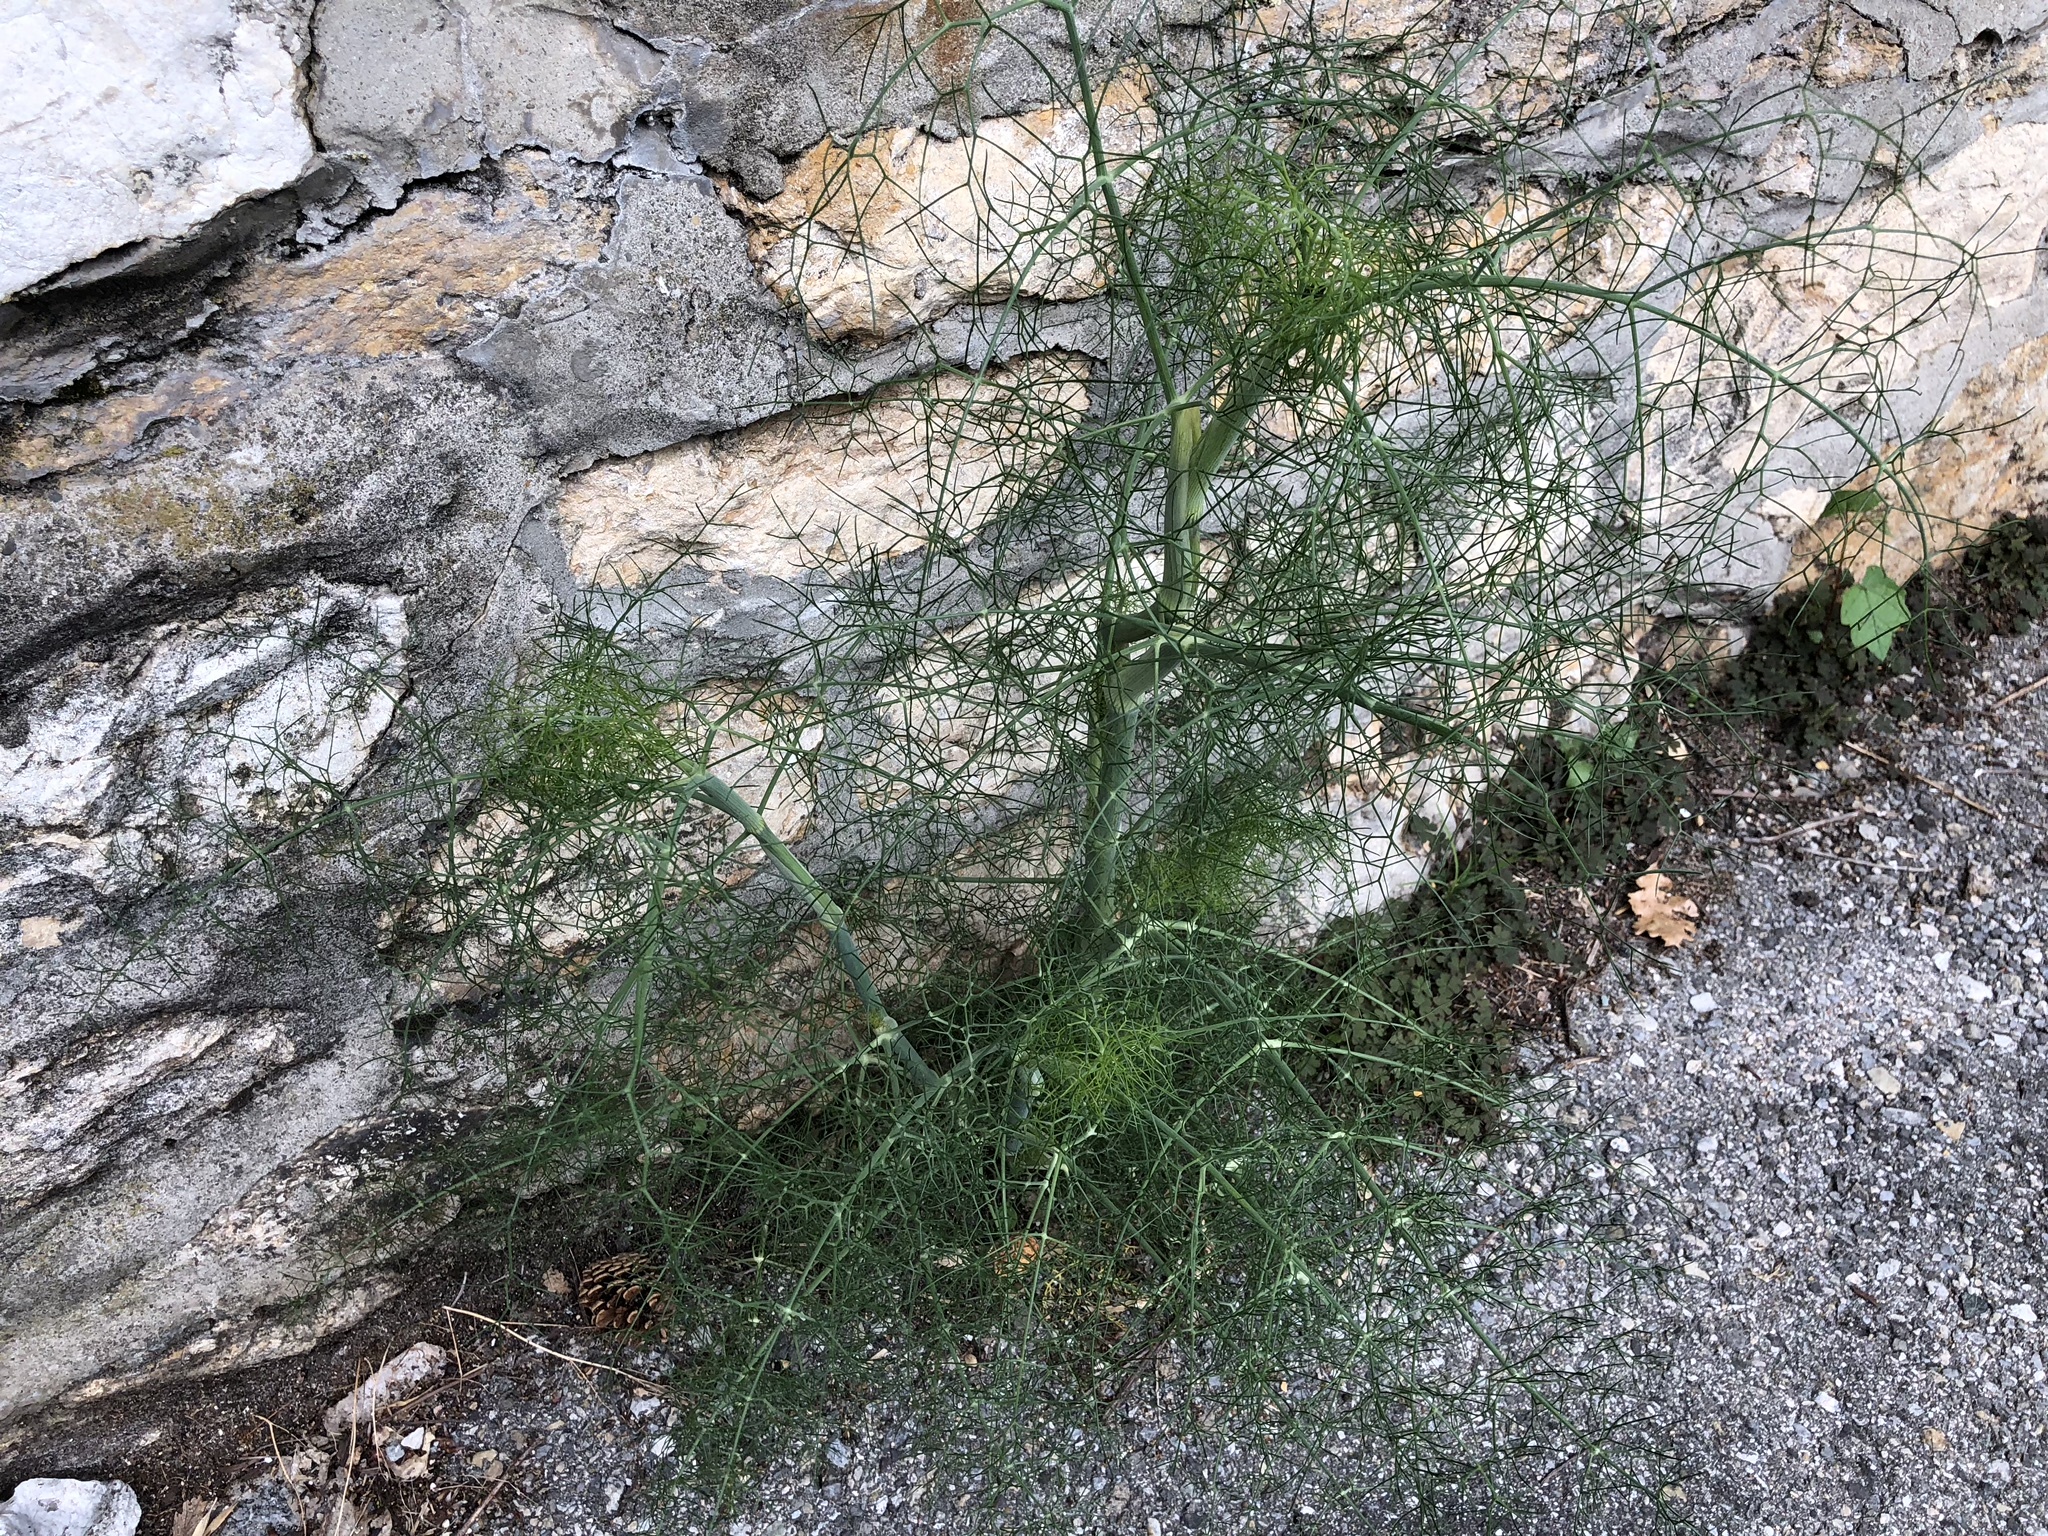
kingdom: Plantae
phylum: Tracheophyta
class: Magnoliopsida
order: Apiales
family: Apiaceae
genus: Foeniculum
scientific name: Foeniculum vulgare
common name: Fennel
